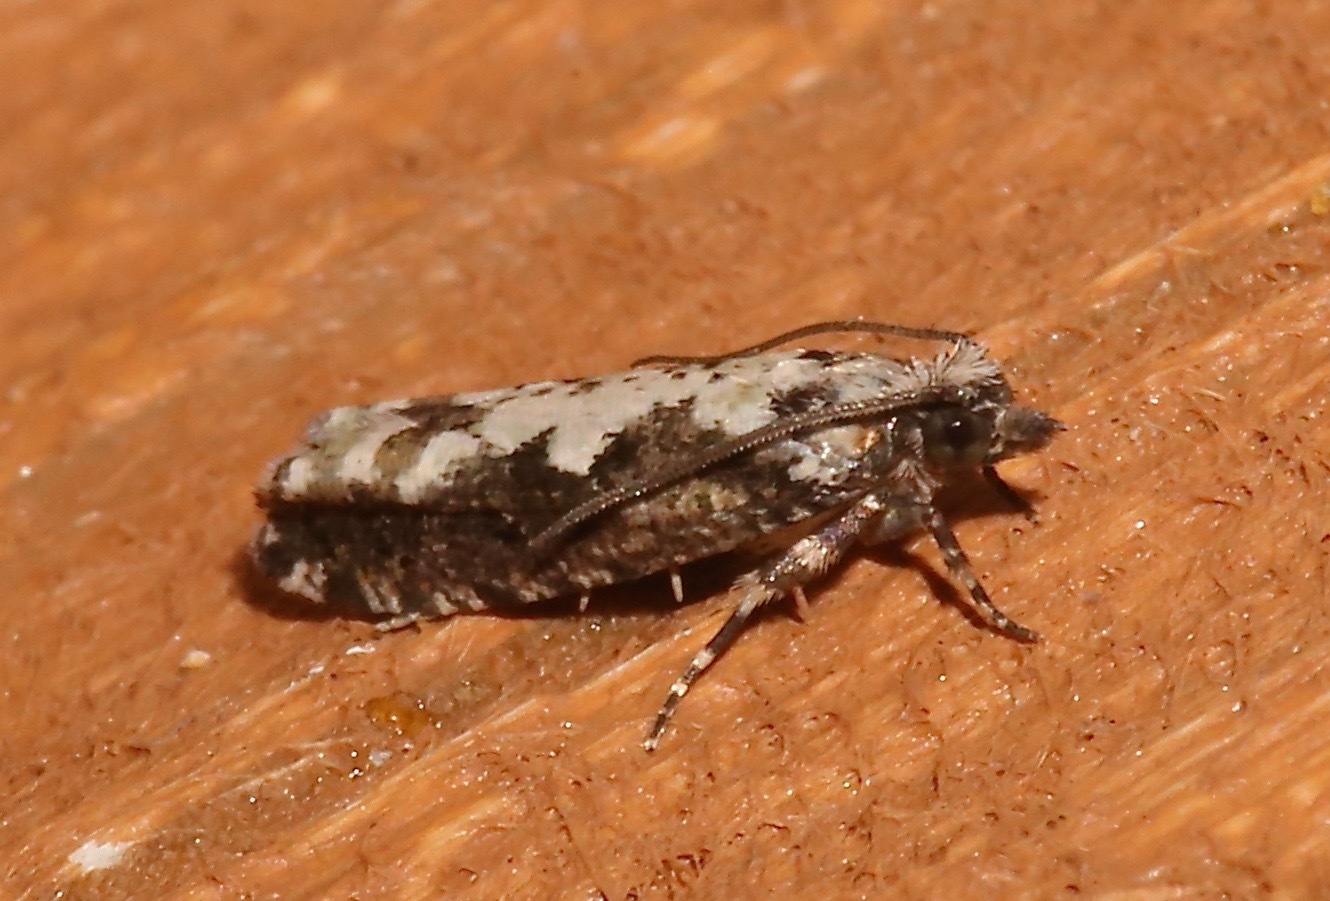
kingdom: Animalia
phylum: Arthropoda
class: Insecta
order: Lepidoptera
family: Tortricidae
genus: Chimoptesis
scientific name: Chimoptesis pennsylvaniana
